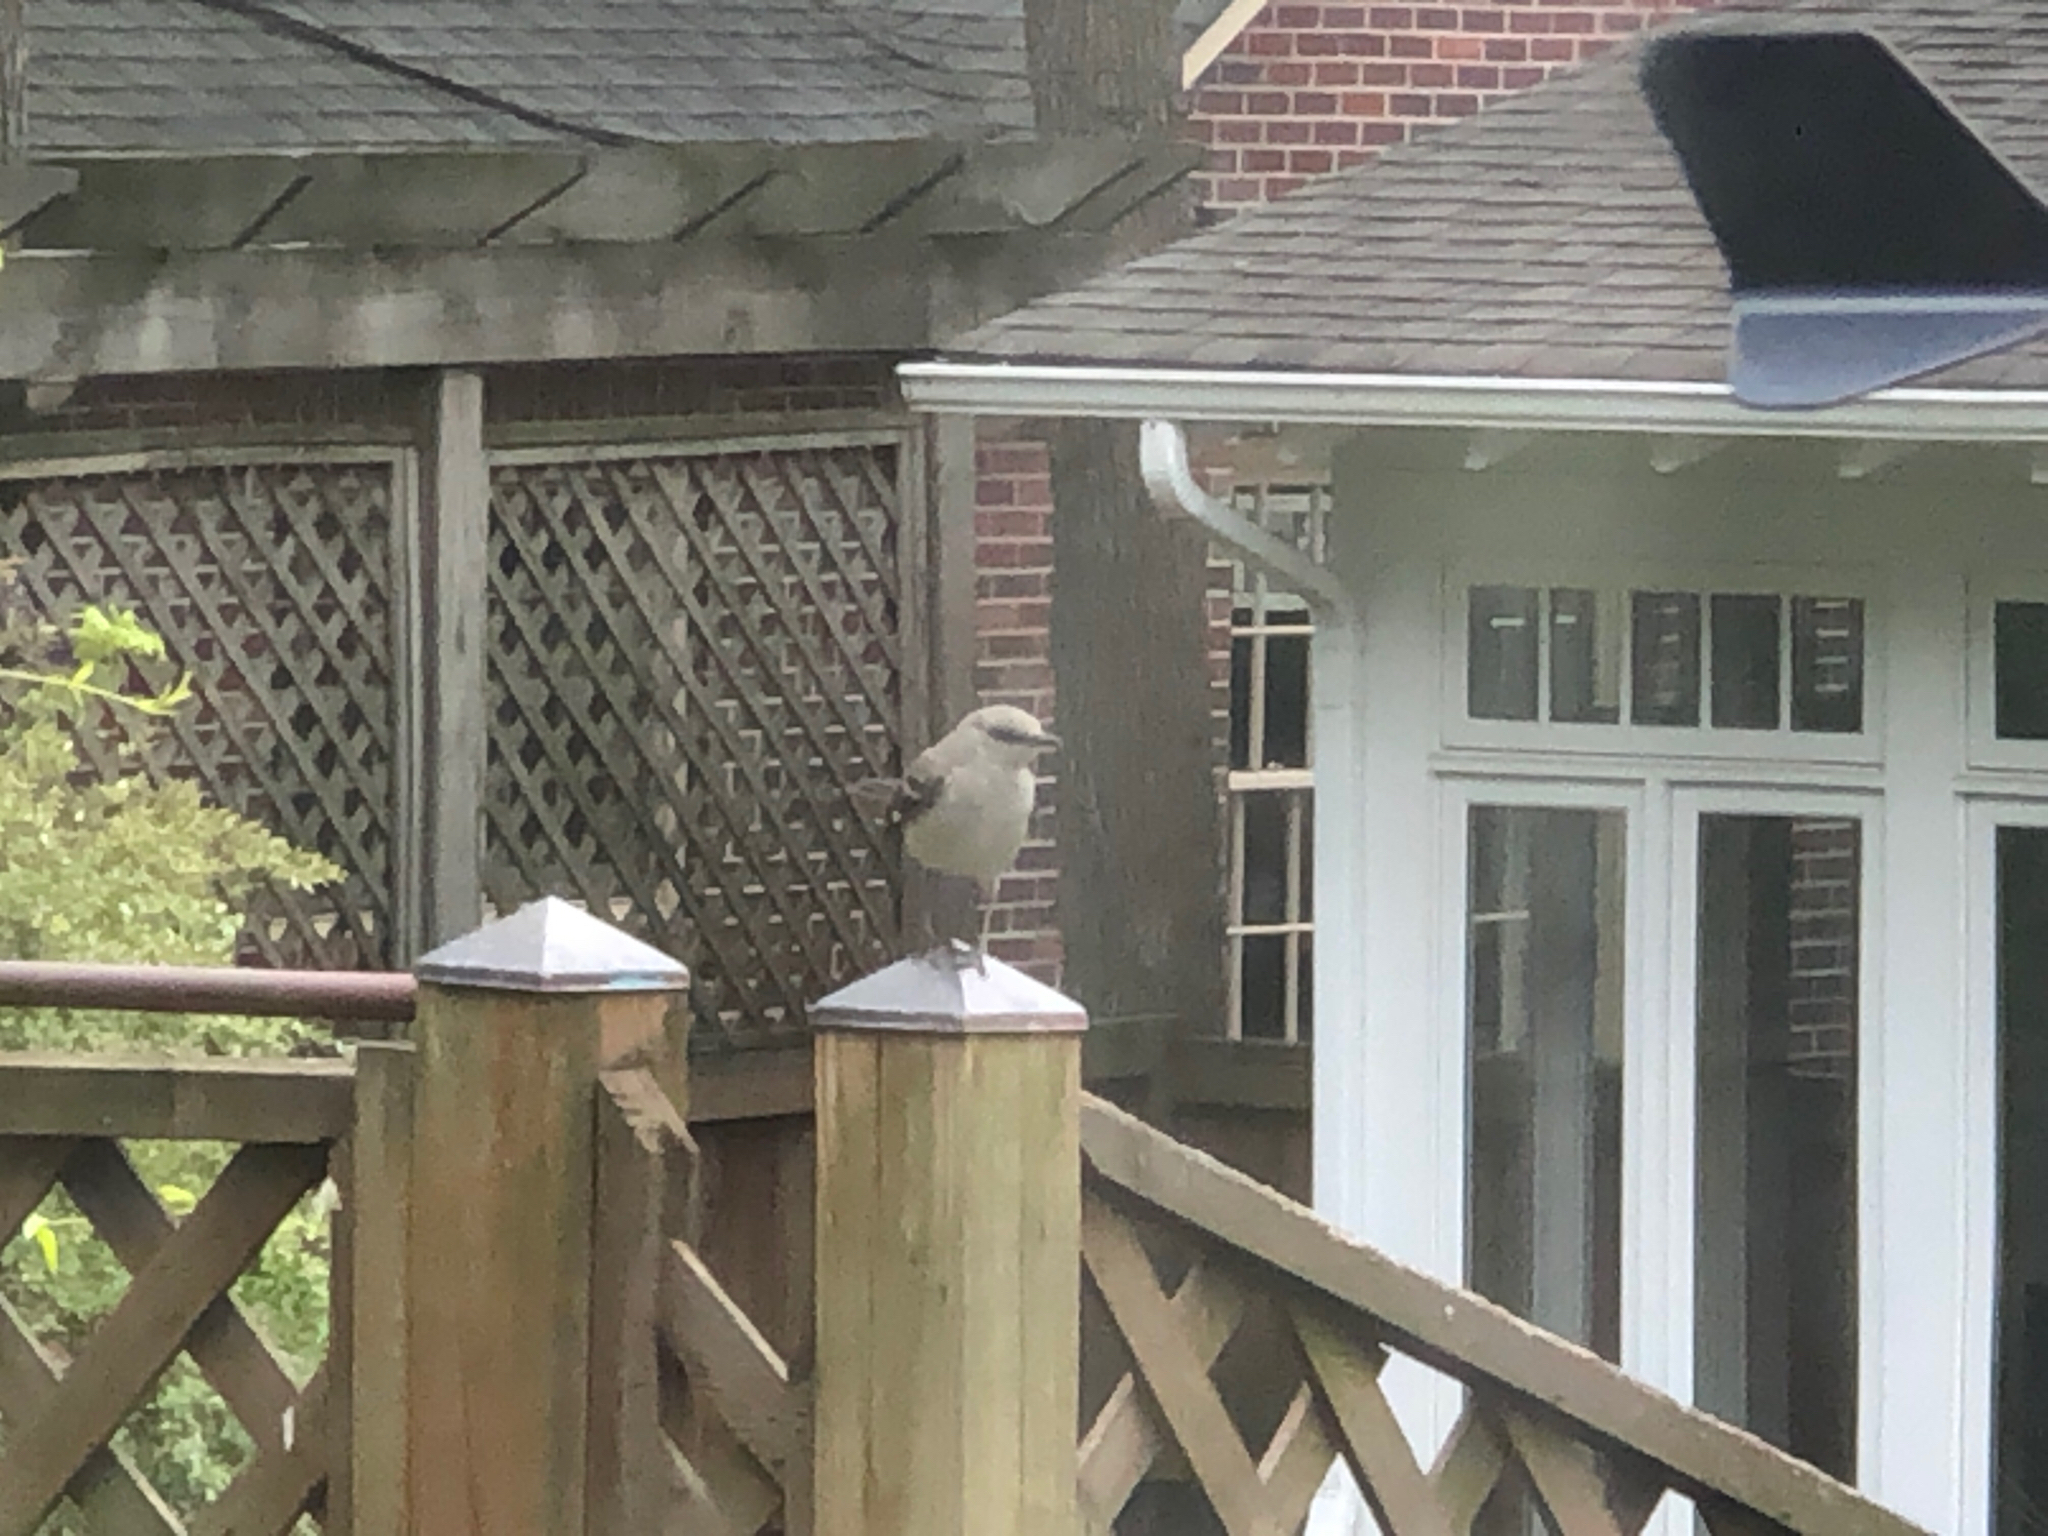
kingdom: Animalia
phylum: Chordata
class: Aves
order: Passeriformes
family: Mimidae
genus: Mimus
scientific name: Mimus polyglottos
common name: Northern mockingbird
